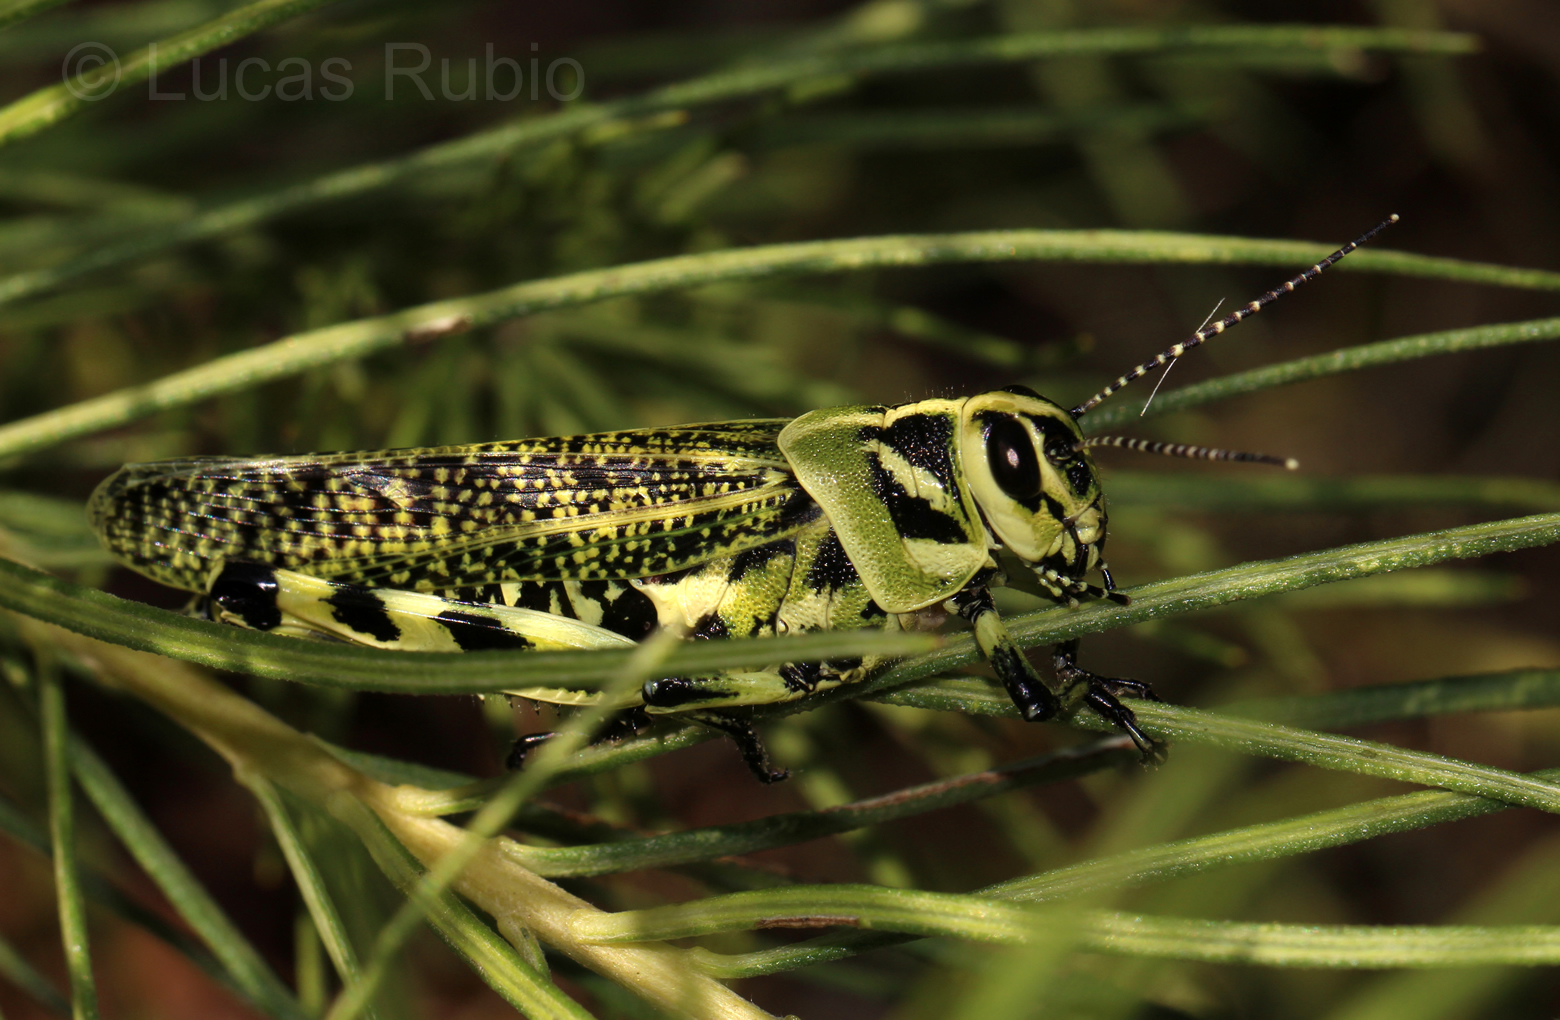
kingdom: Animalia
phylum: Arthropoda
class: Insecta
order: Orthoptera
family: Romaleidae
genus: Diponthus
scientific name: Diponthus argentinus
